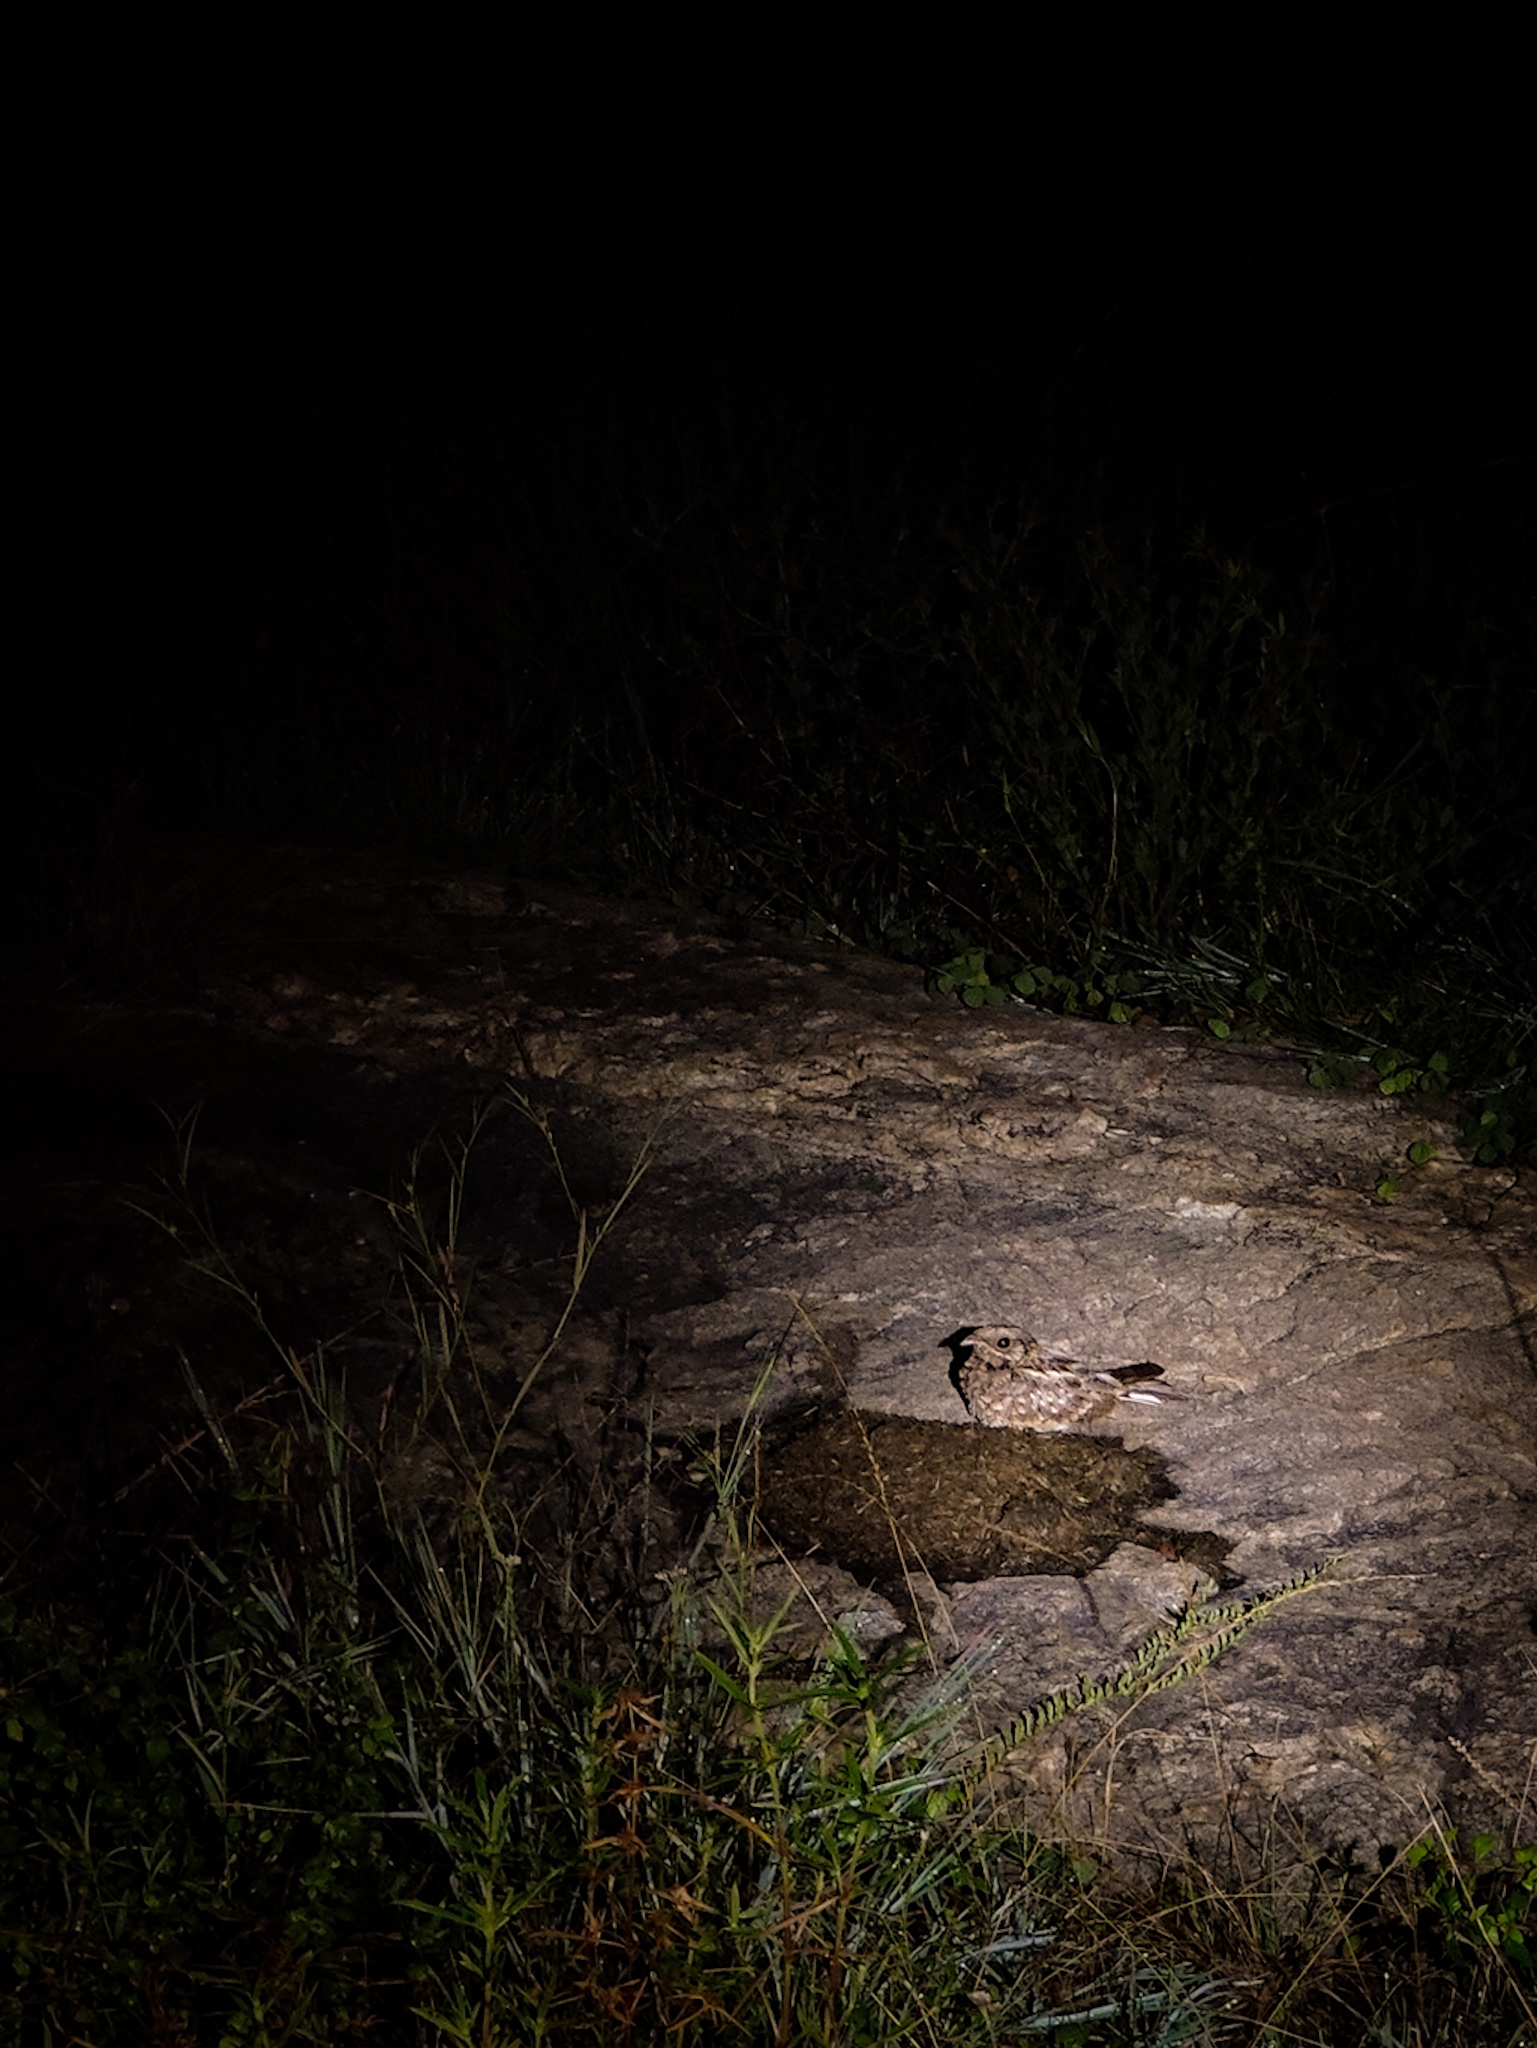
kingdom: Animalia
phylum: Chordata
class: Aves
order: Caprimulgiformes
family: Caprimulgidae
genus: Caprimulgus
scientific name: Caprimulgus asiaticus
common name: Indian nightjar
